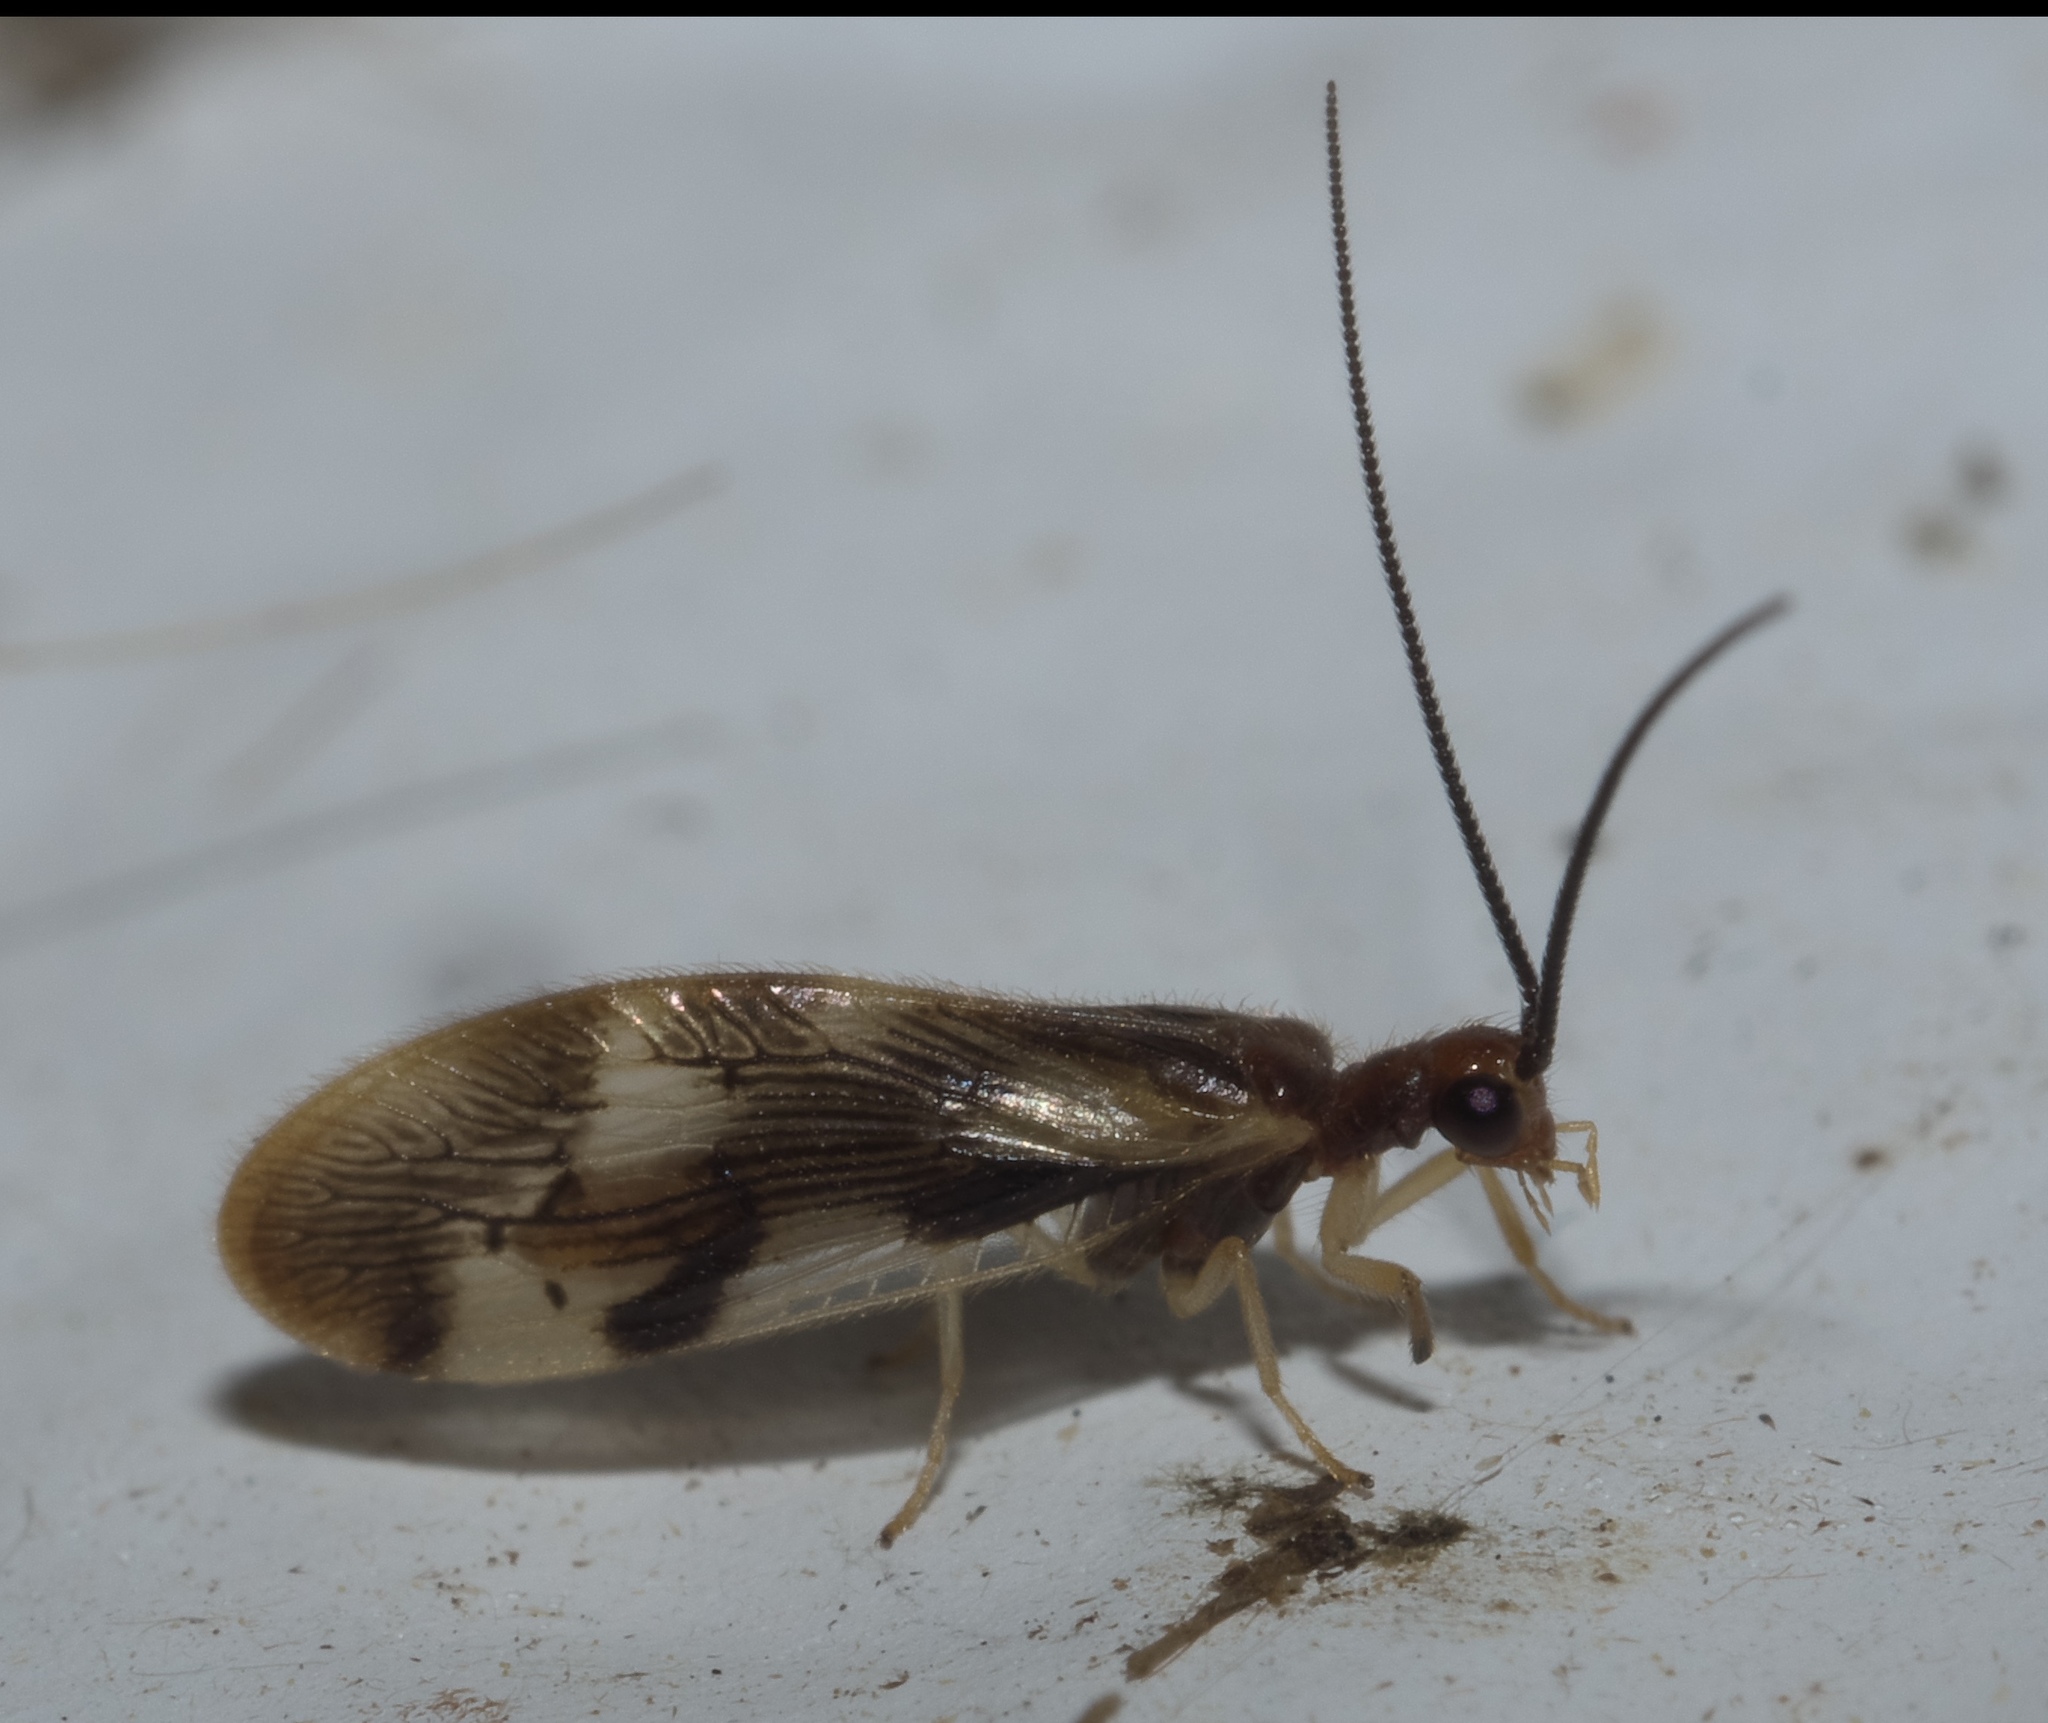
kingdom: Animalia
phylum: Arthropoda
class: Insecta
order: Neuroptera
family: Sisyridae
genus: Climacia
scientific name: Climacia areolaris
